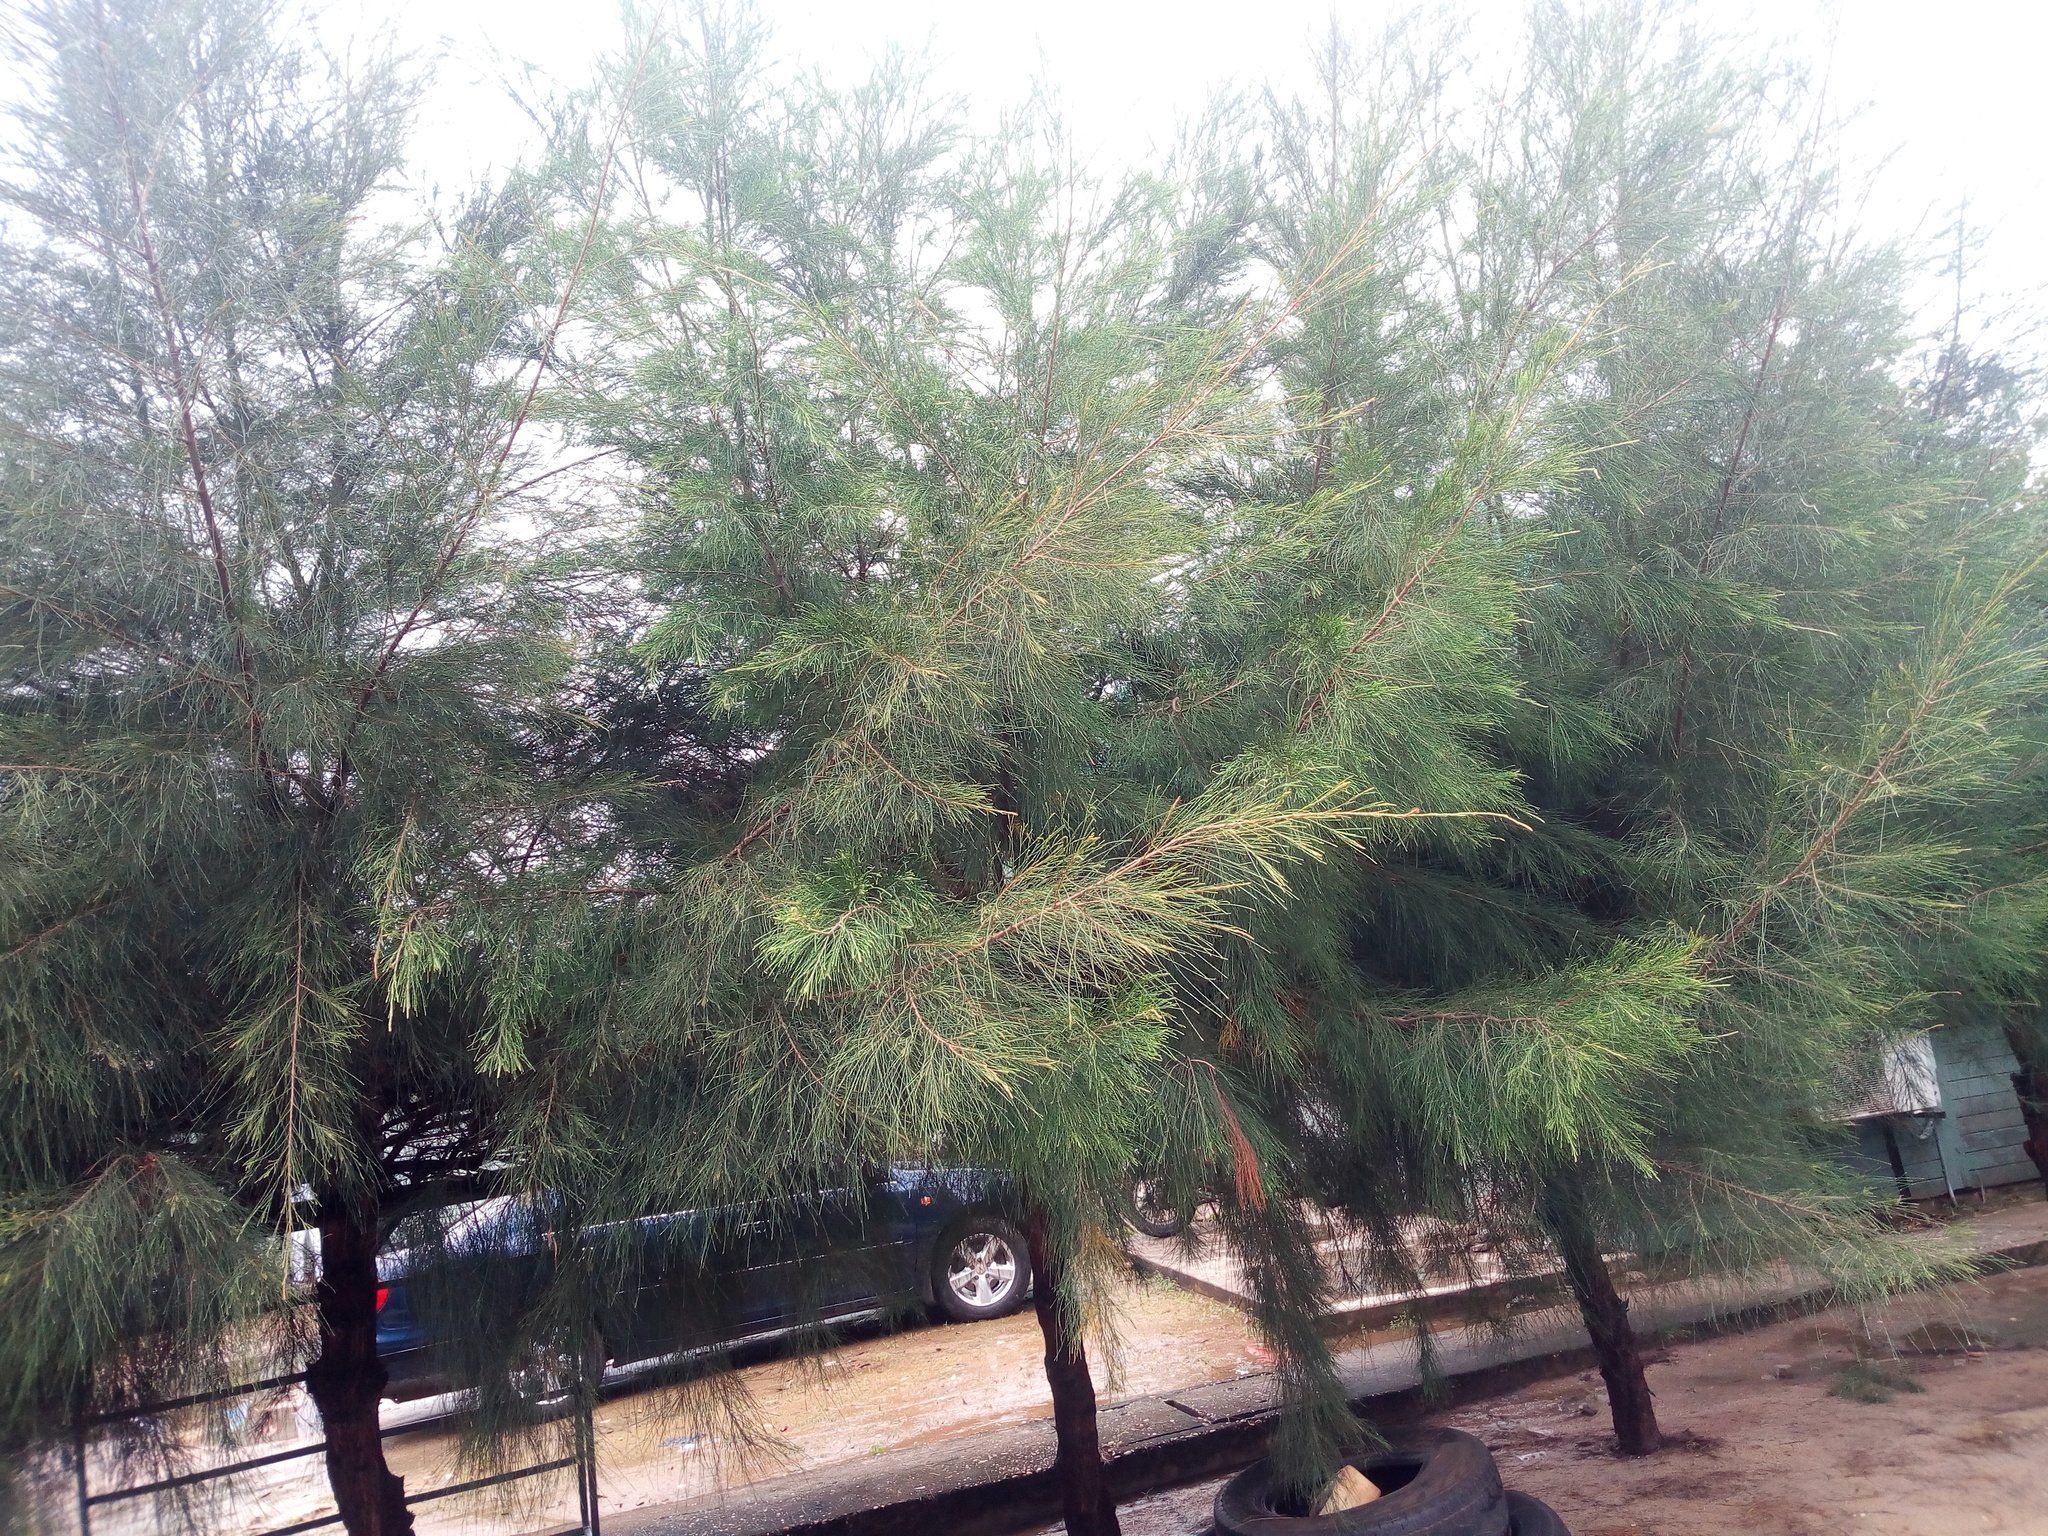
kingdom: Plantae
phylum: Tracheophyta
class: Magnoliopsida
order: Fagales
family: Casuarinaceae
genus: Casuarina
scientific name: Casuarina equisetifolia
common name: Beach sheoak
